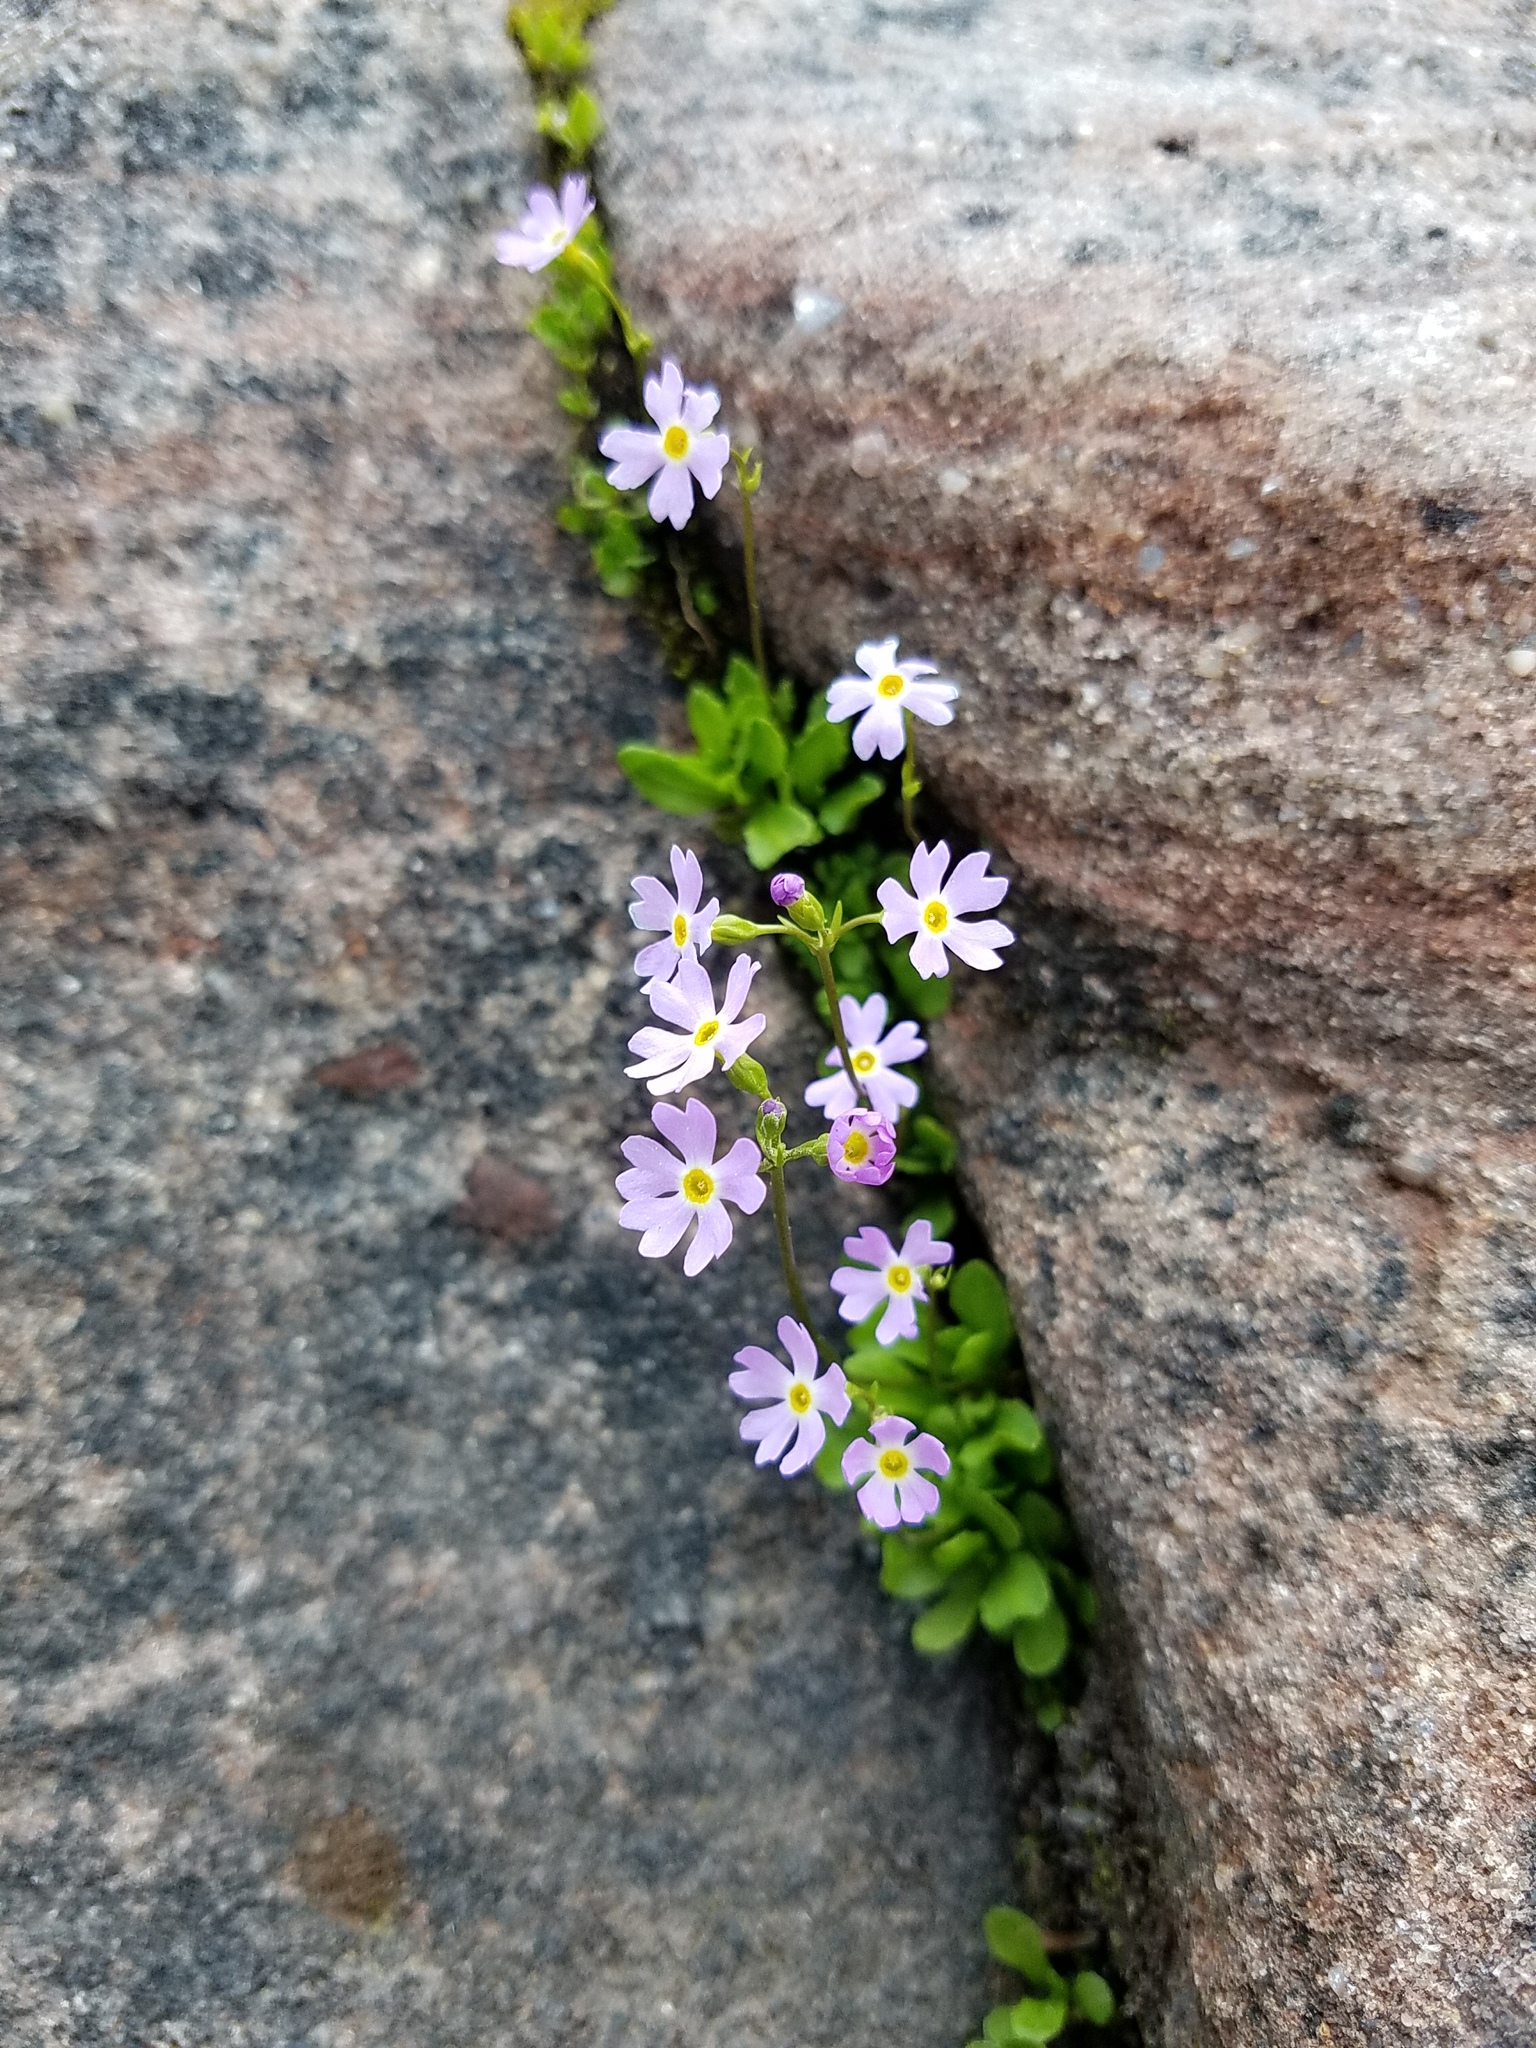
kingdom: Plantae
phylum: Tracheophyta
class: Magnoliopsida
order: Ericales
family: Primulaceae
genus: Primula
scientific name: Primula mistassinica
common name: Bird's-eye primrose
